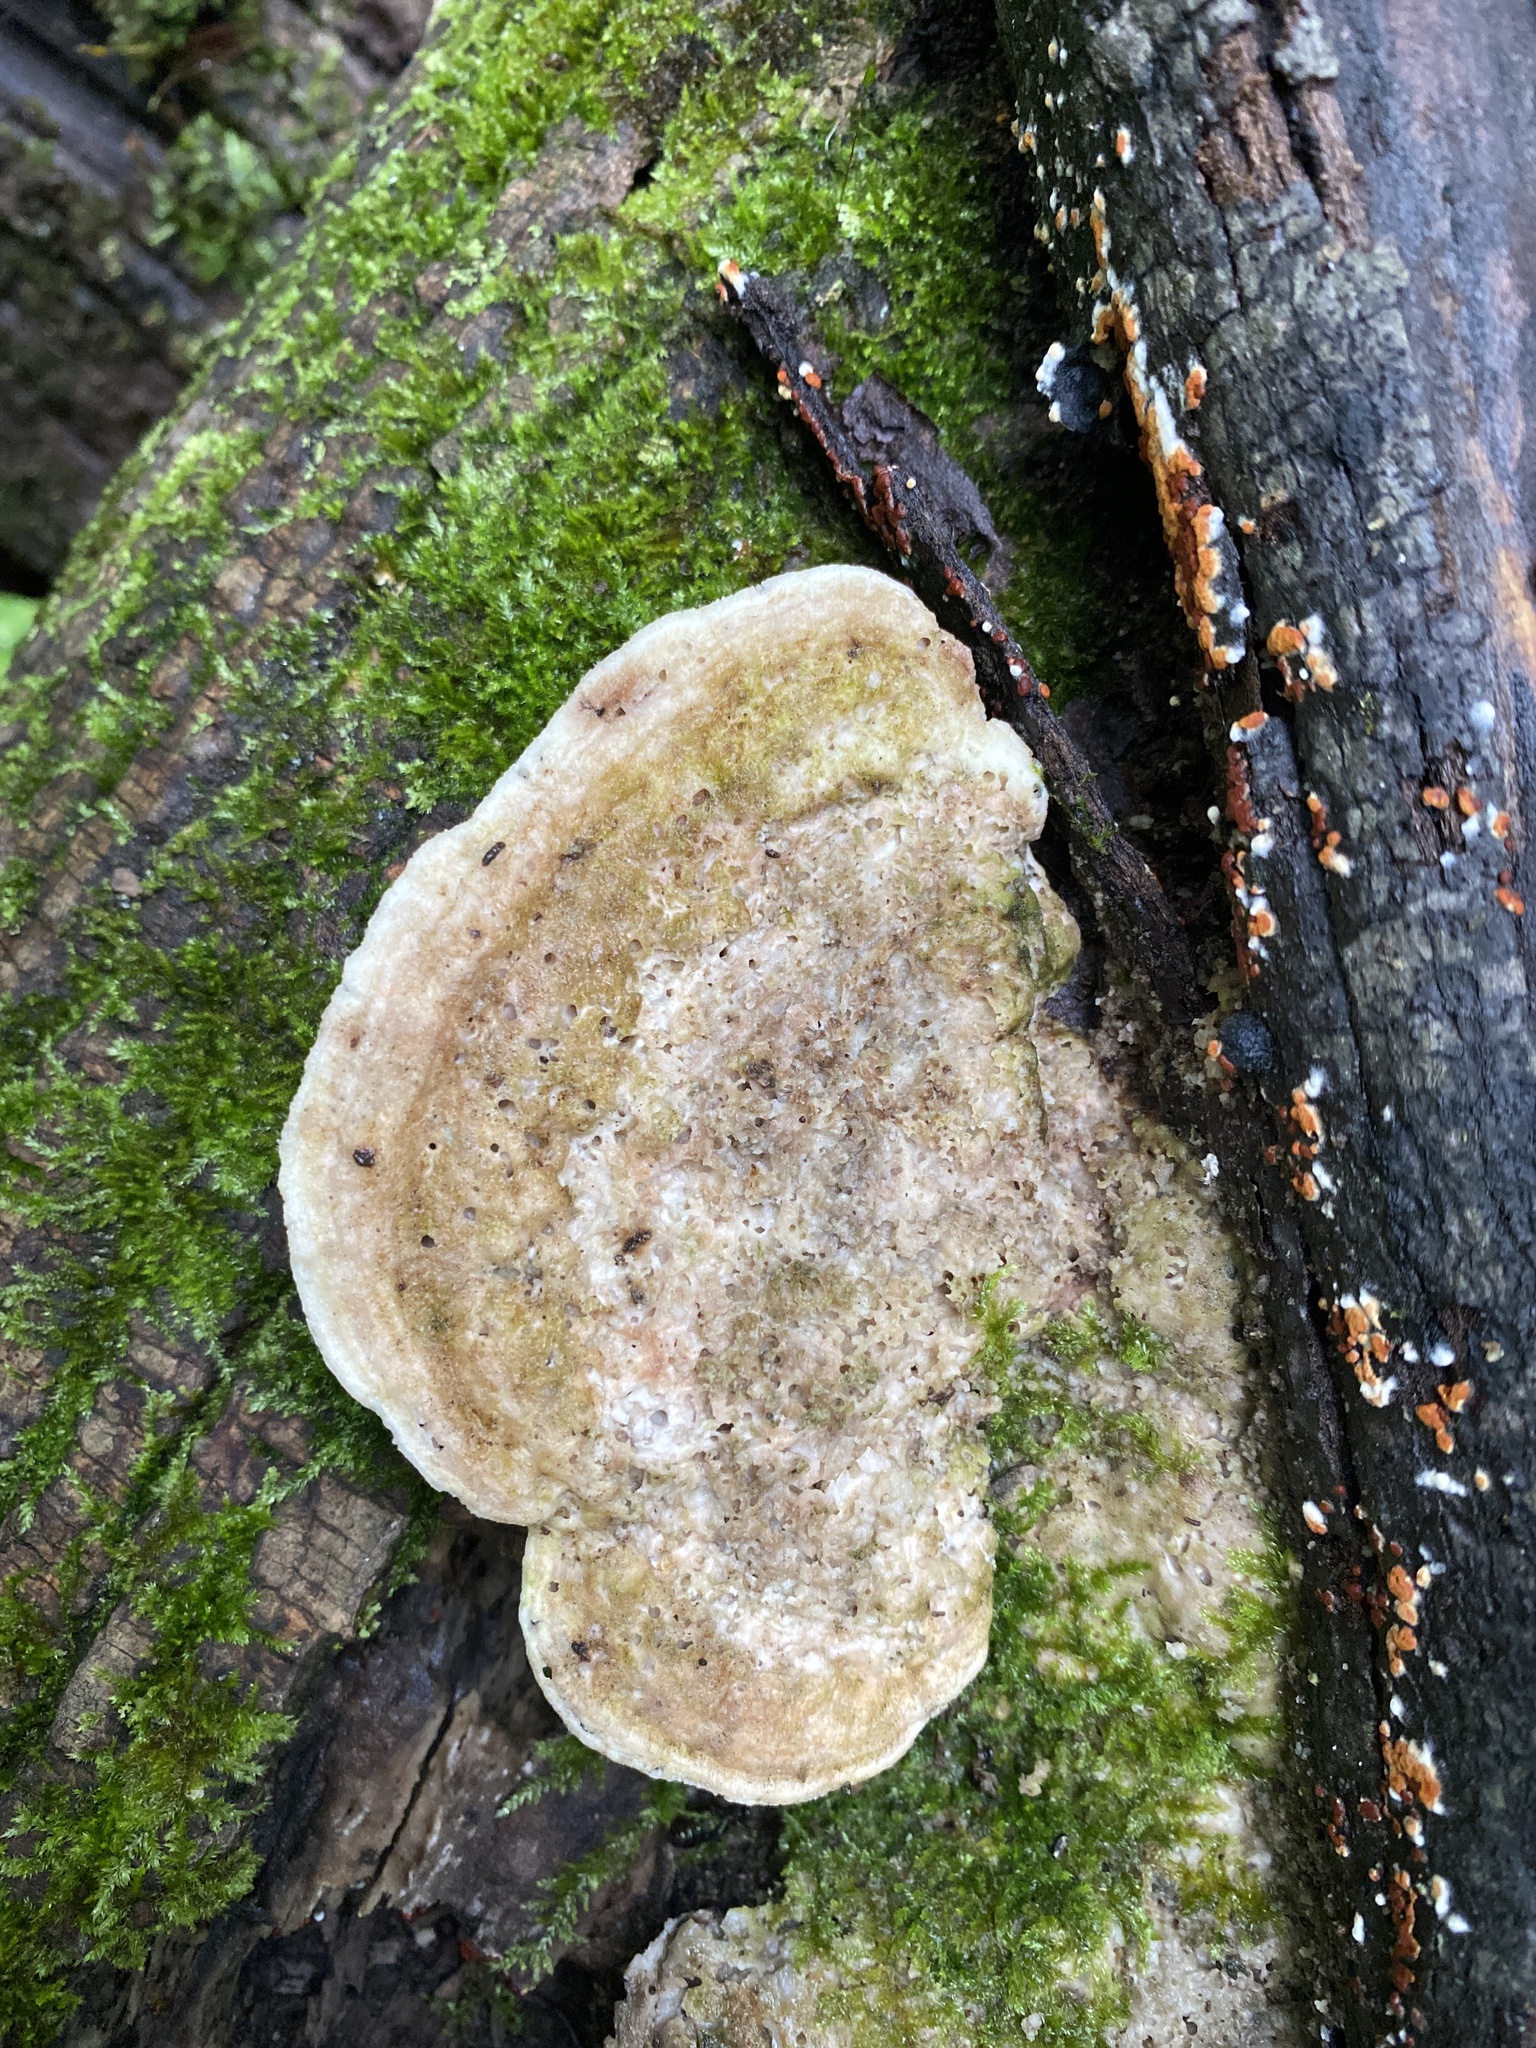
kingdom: Fungi
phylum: Basidiomycota
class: Agaricomycetes
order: Polyporales
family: Polyporaceae
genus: Trametes
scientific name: Trametes gibbosa
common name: Lumpy bracket
